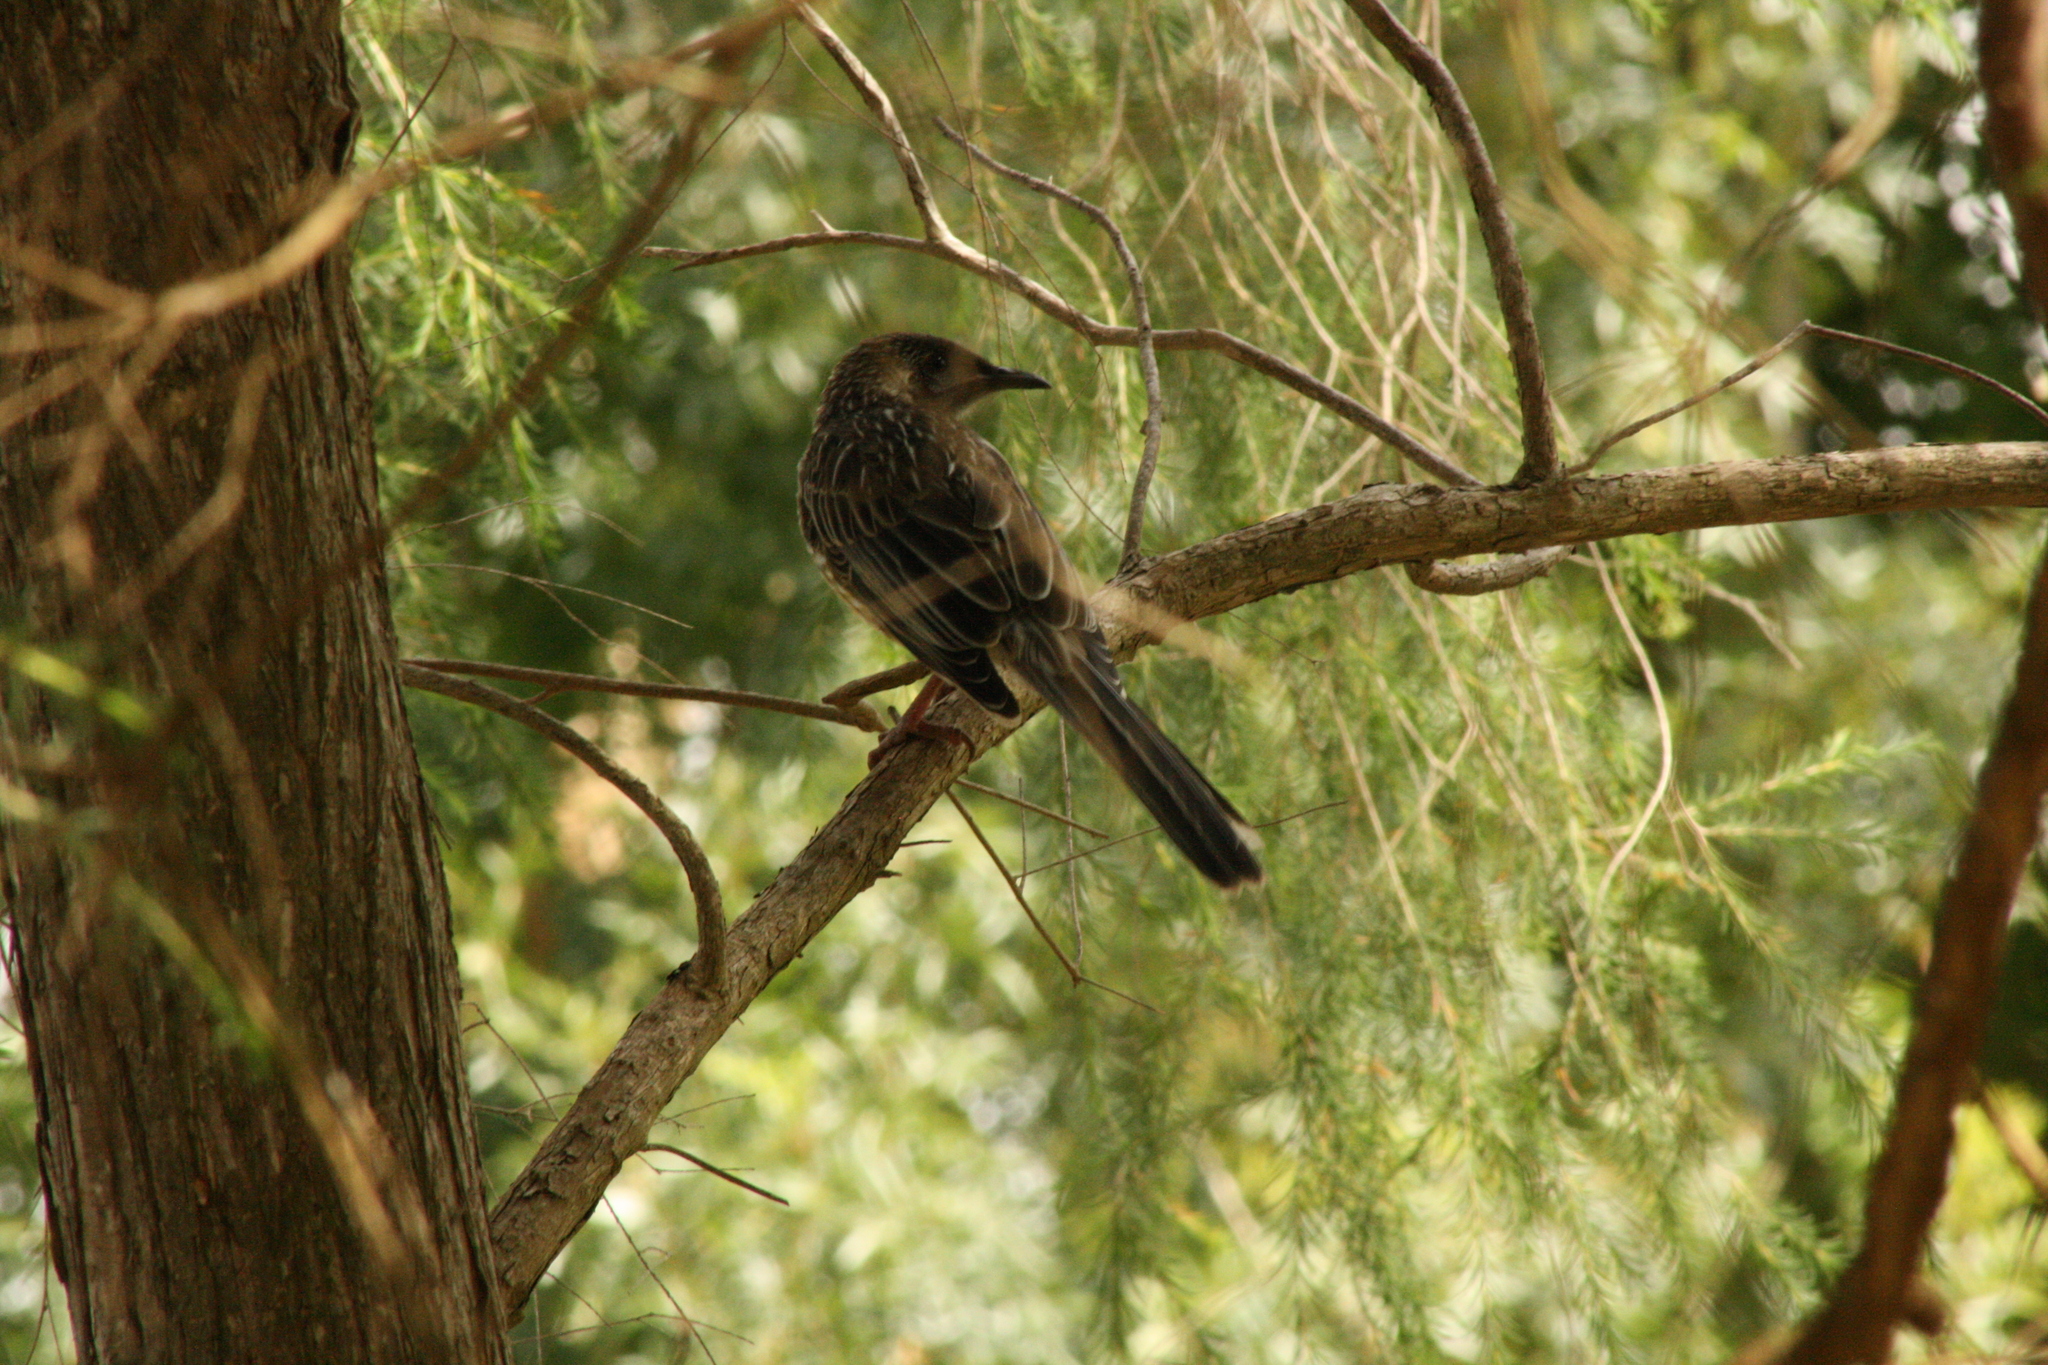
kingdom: Animalia
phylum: Chordata
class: Aves
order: Passeriformes
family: Meliphagidae
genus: Anthochaera
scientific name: Anthochaera carunculata
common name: Red wattlebird
